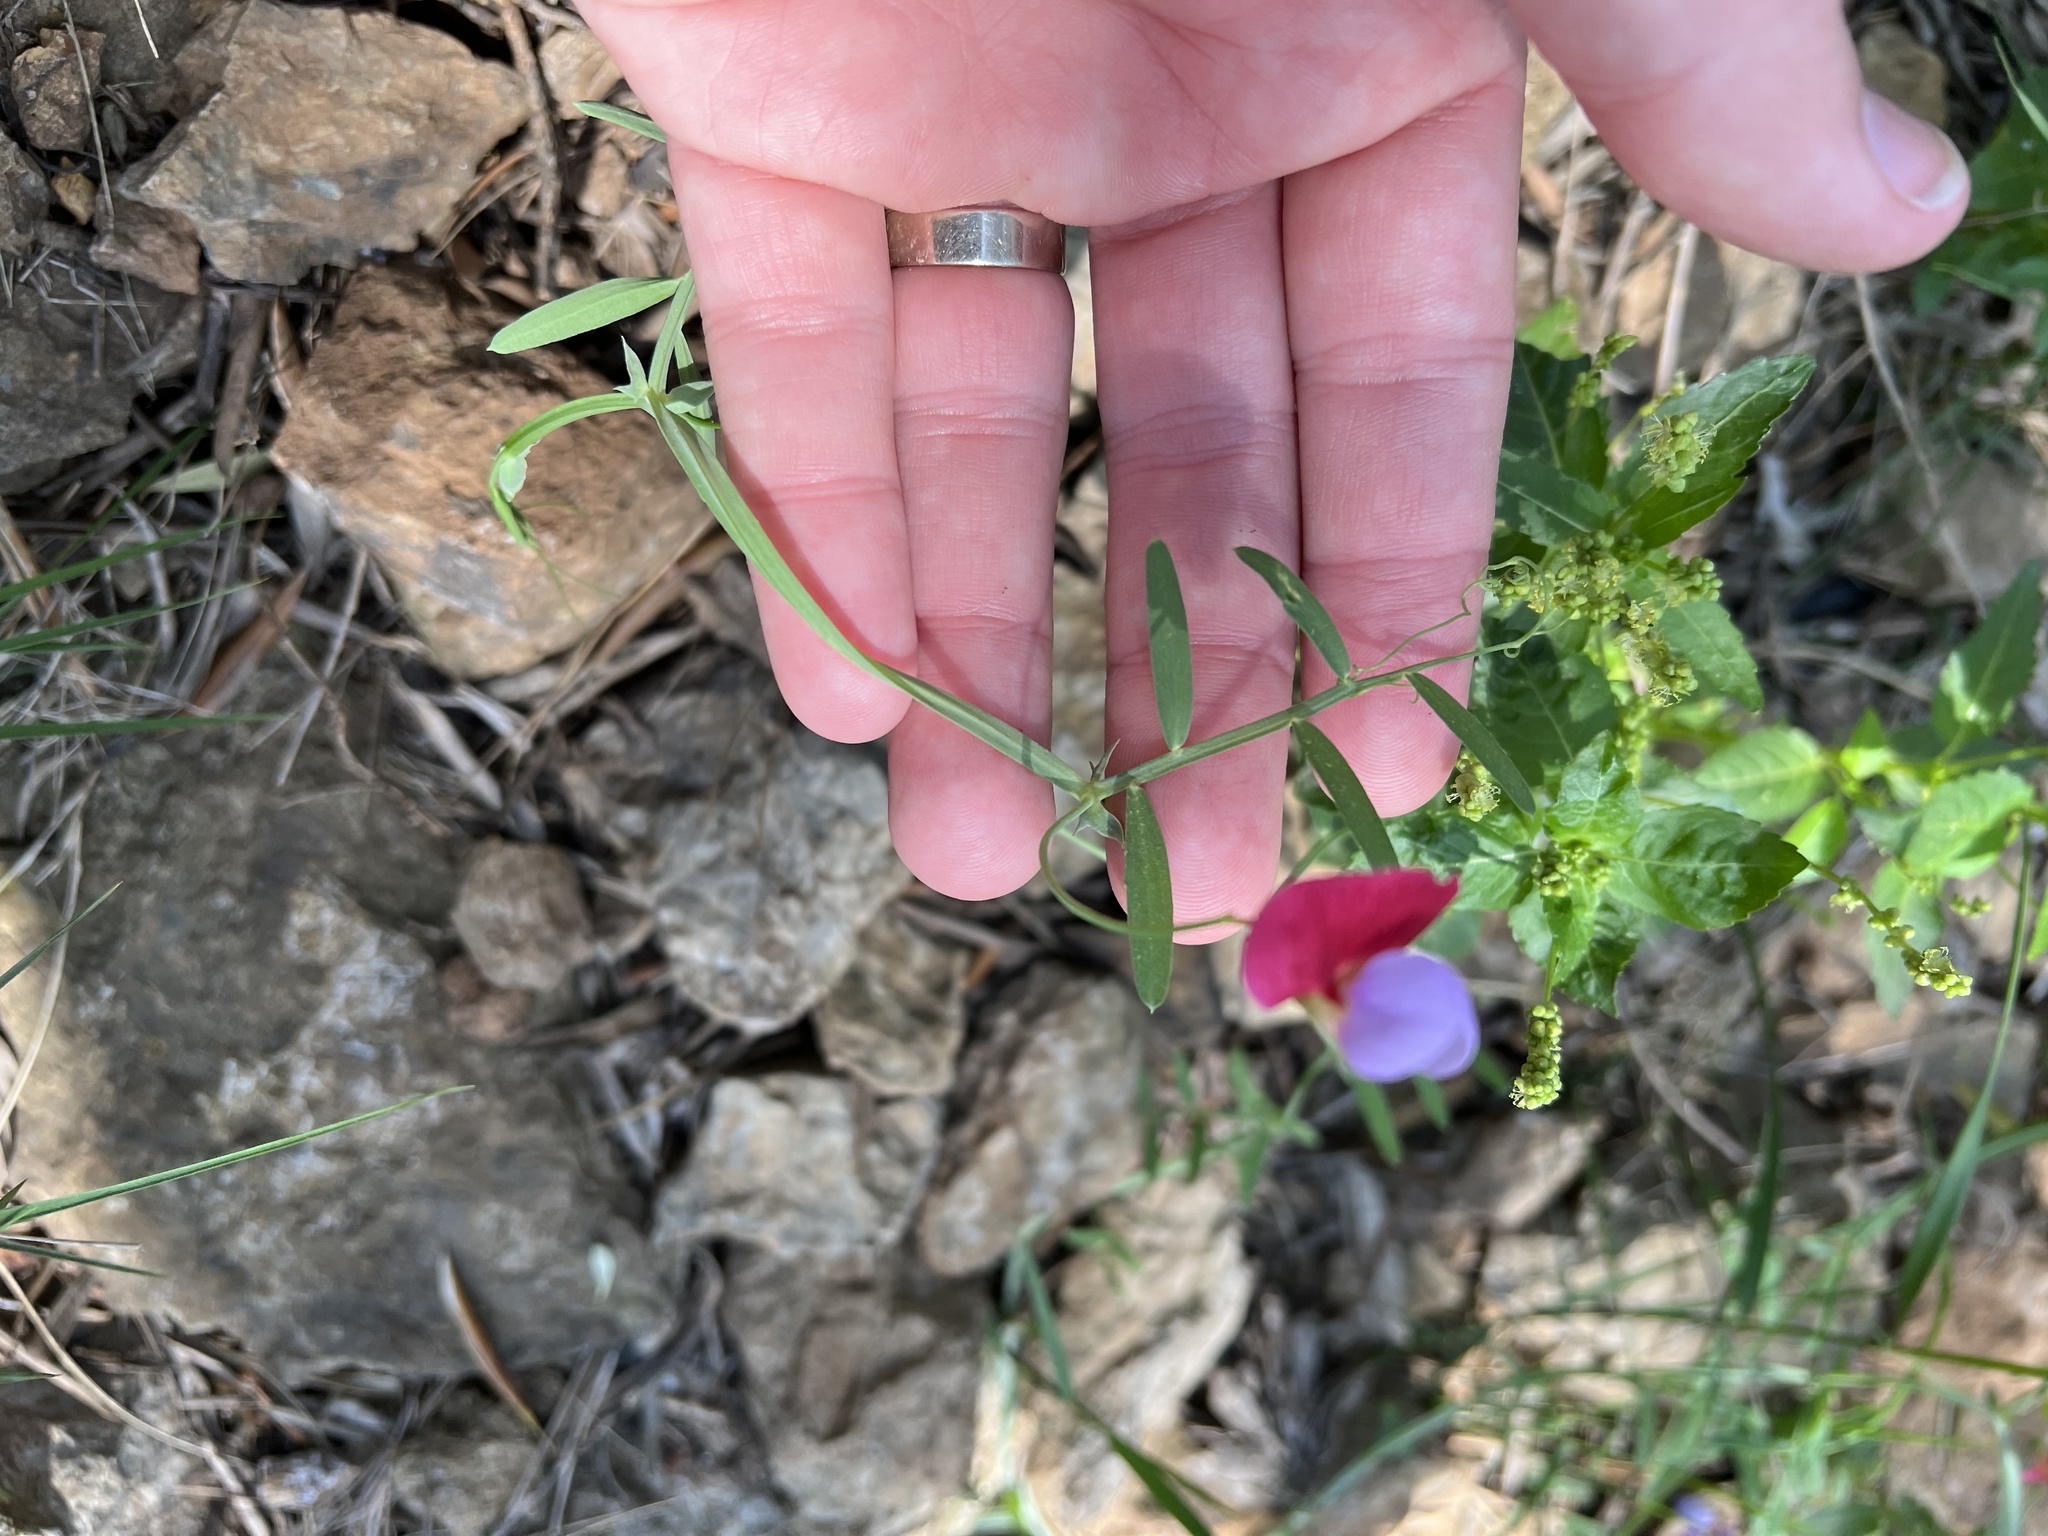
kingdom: Plantae
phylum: Tracheophyta
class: Magnoliopsida
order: Fabales
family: Fabaceae
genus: Lathyrus
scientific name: Lathyrus clymenum
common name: Spanish vetchling
